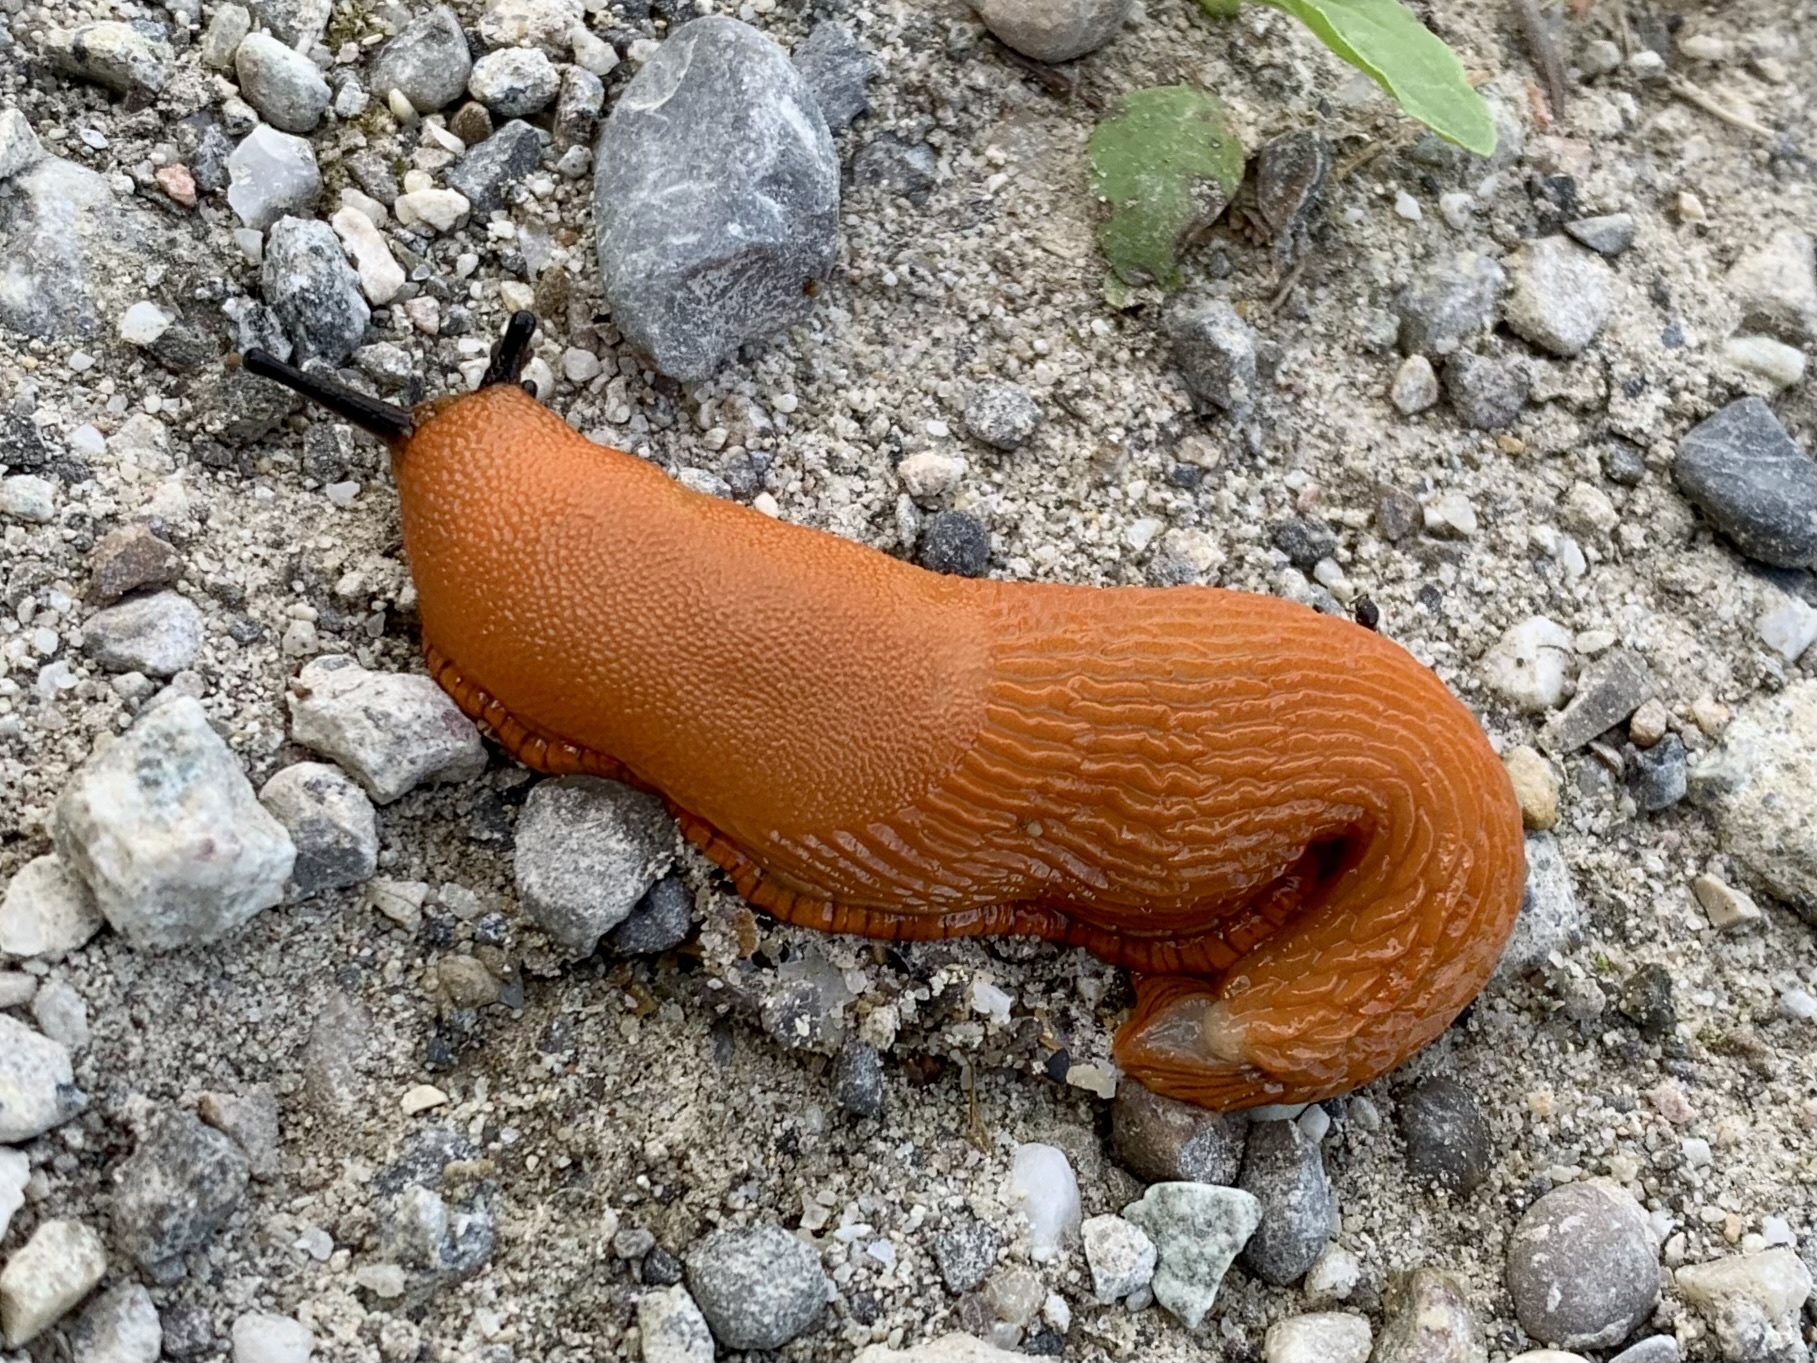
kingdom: Animalia
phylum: Mollusca
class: Gastropoda
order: Stylommatophora
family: Arionidae
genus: Arion
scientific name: Arion vulgaris
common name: Lusitanian slug
